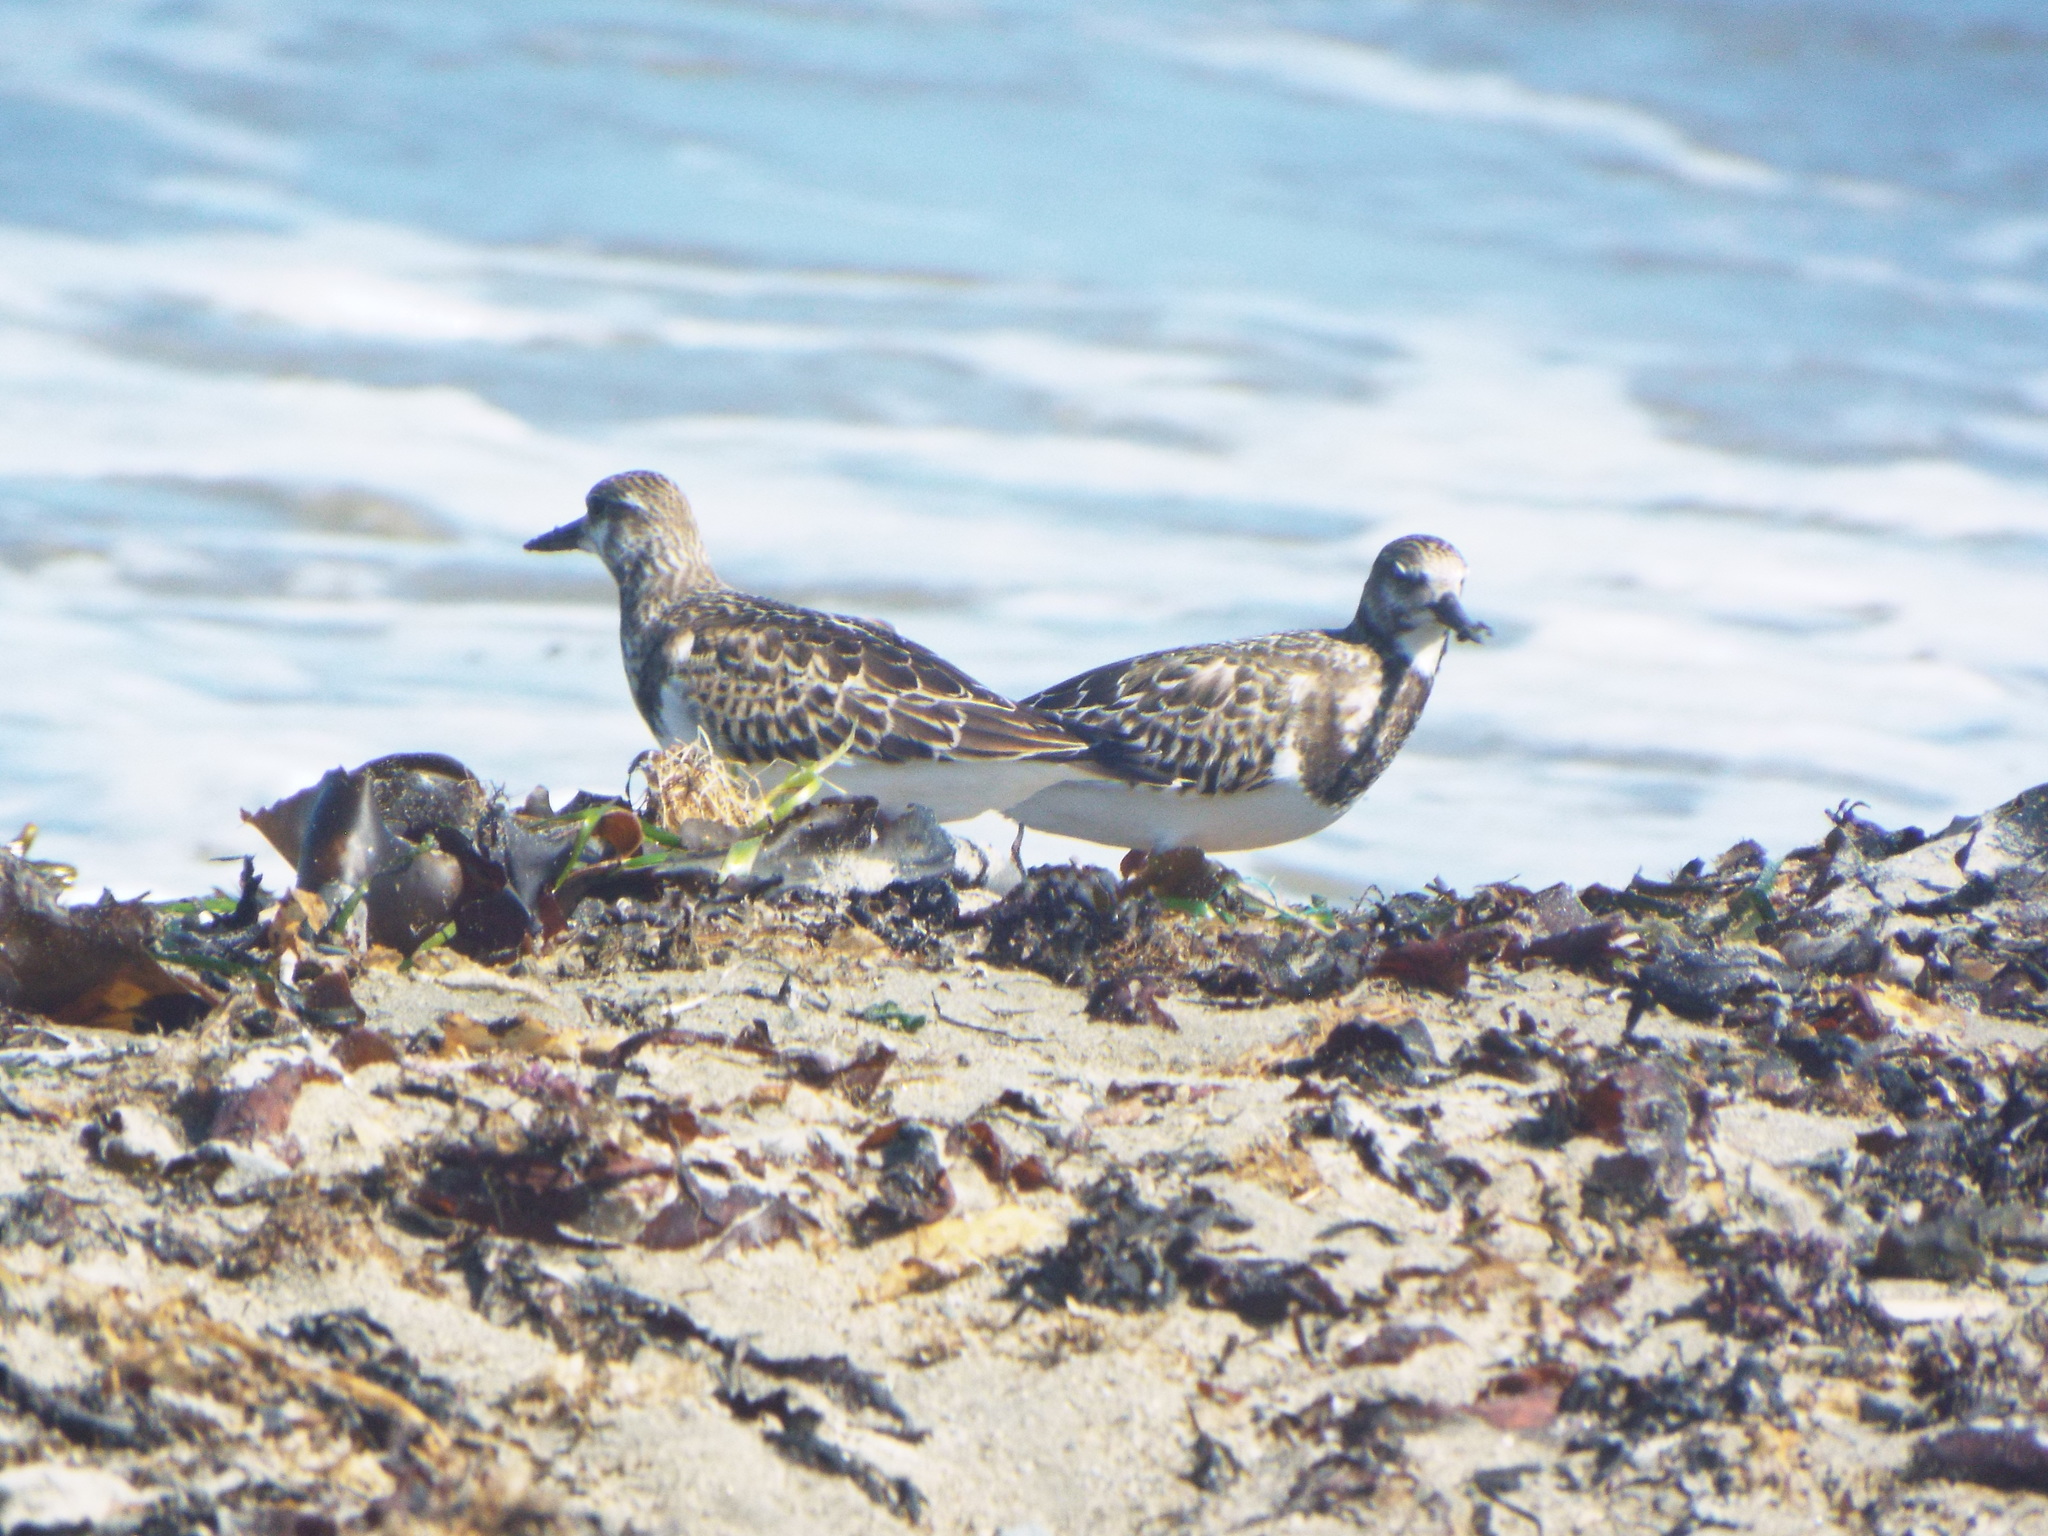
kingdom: Animalia
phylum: Chordata
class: Aves
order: Charadriiformes
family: Scolopacidae
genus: Arenaria
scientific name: Arenaria interpres
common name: Ruddy turnstone
